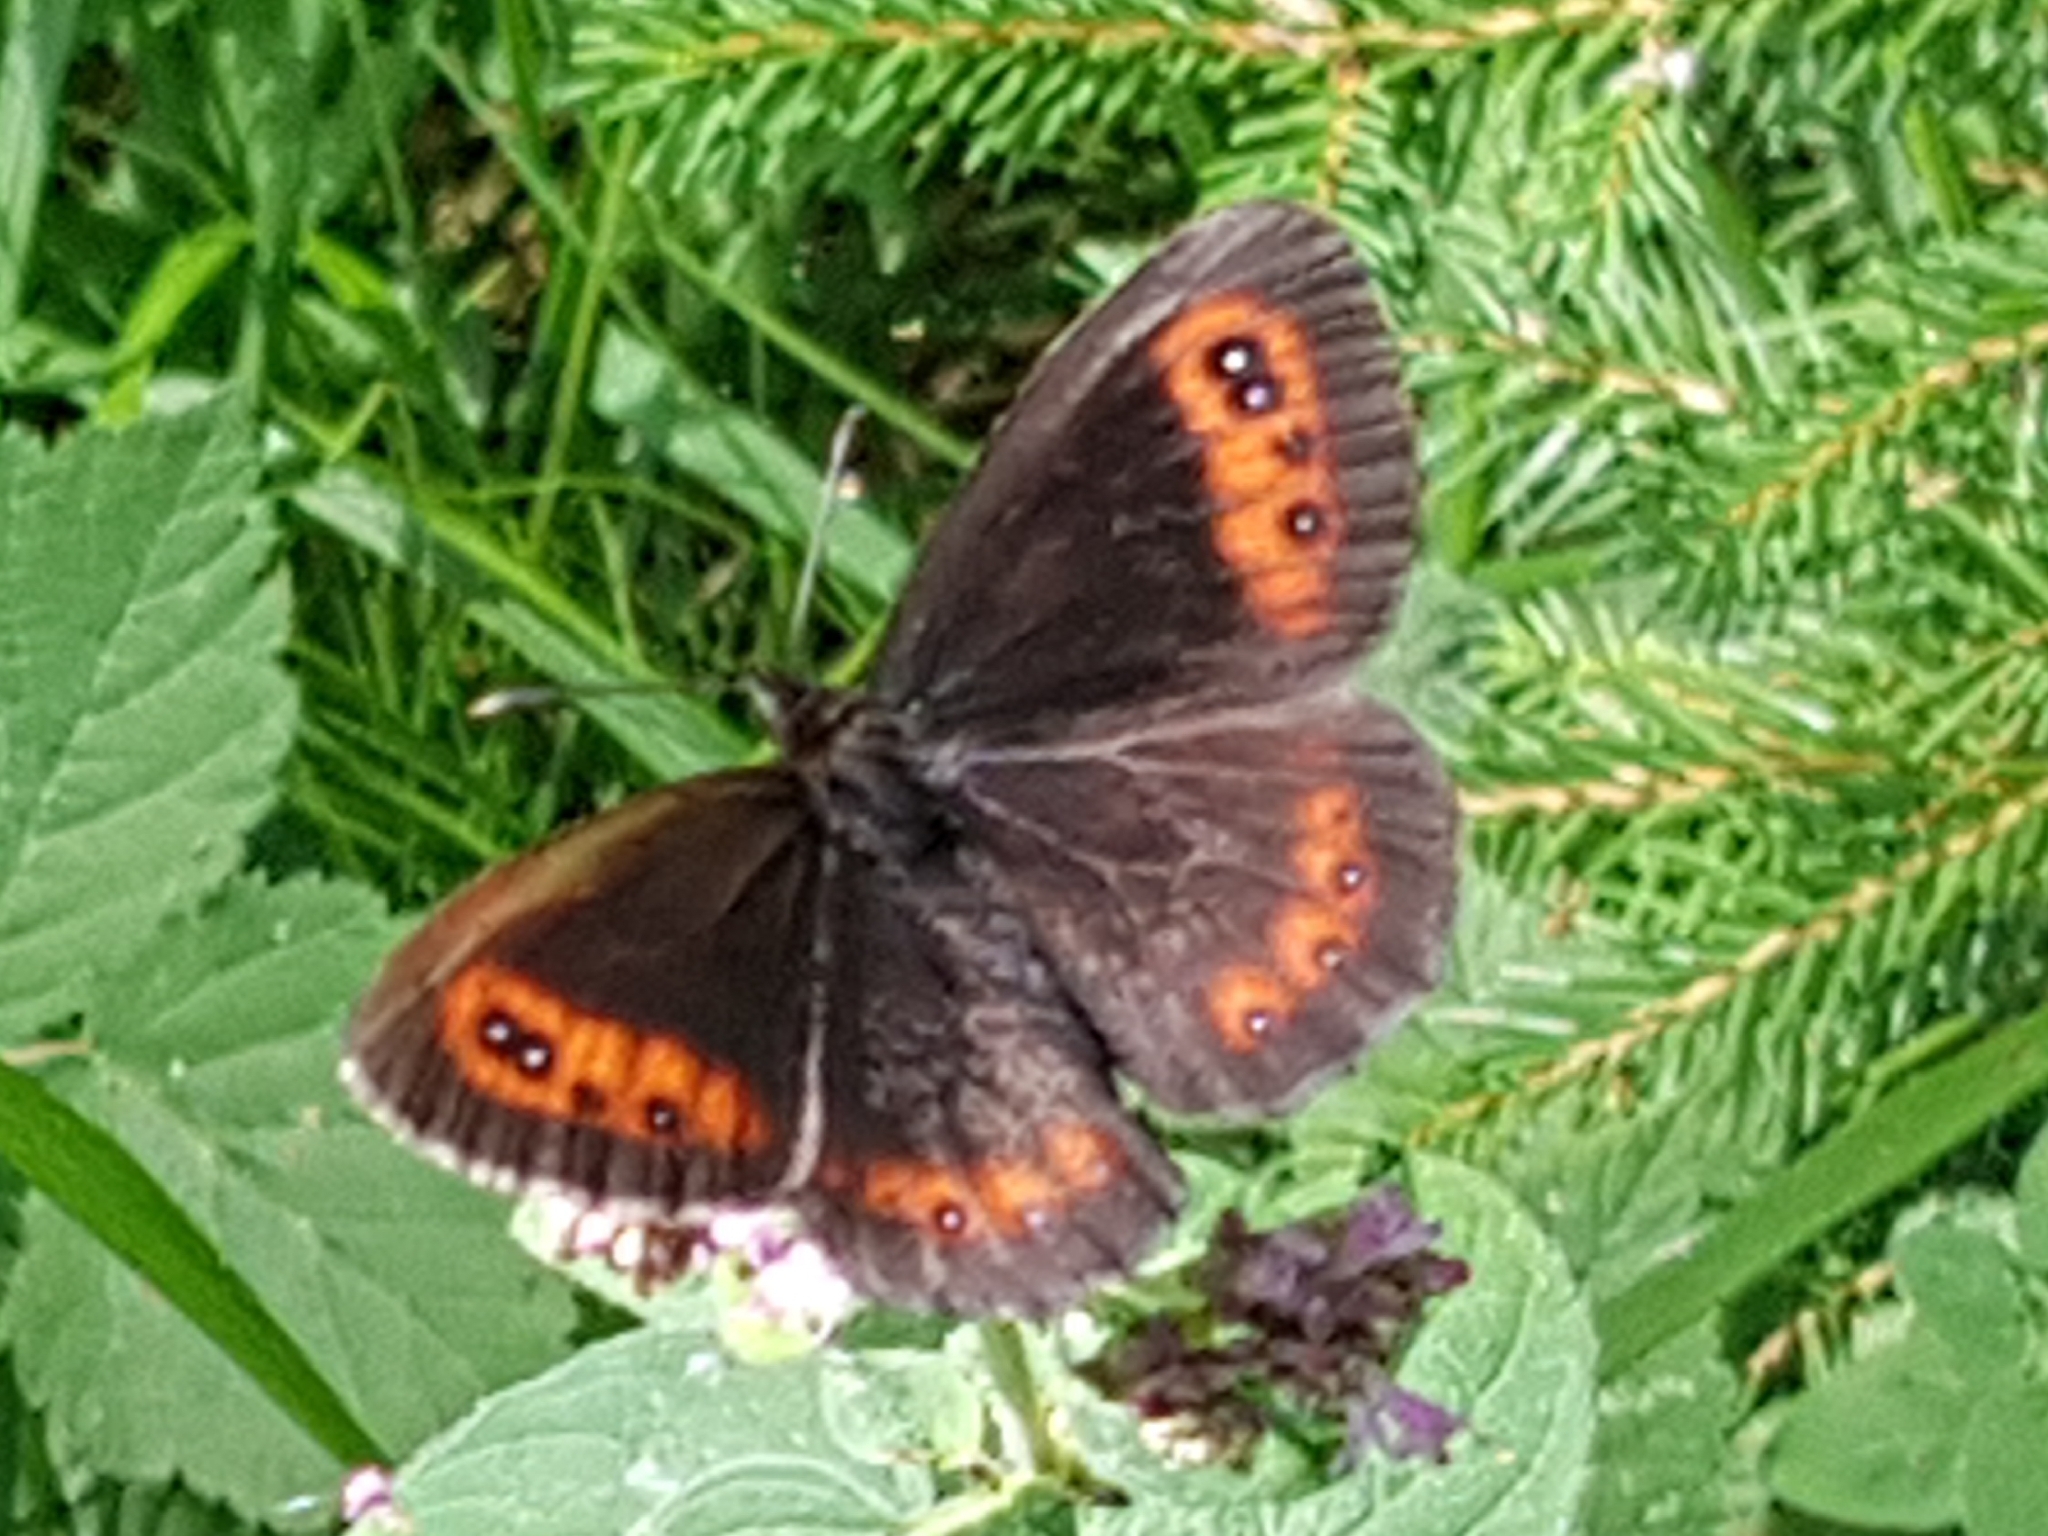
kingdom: Animalia
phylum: Arthropoda
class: Insecta
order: Lepidoptera
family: Nymphalidae
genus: Erebia
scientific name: Erebia aethiops
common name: Scotch argus
